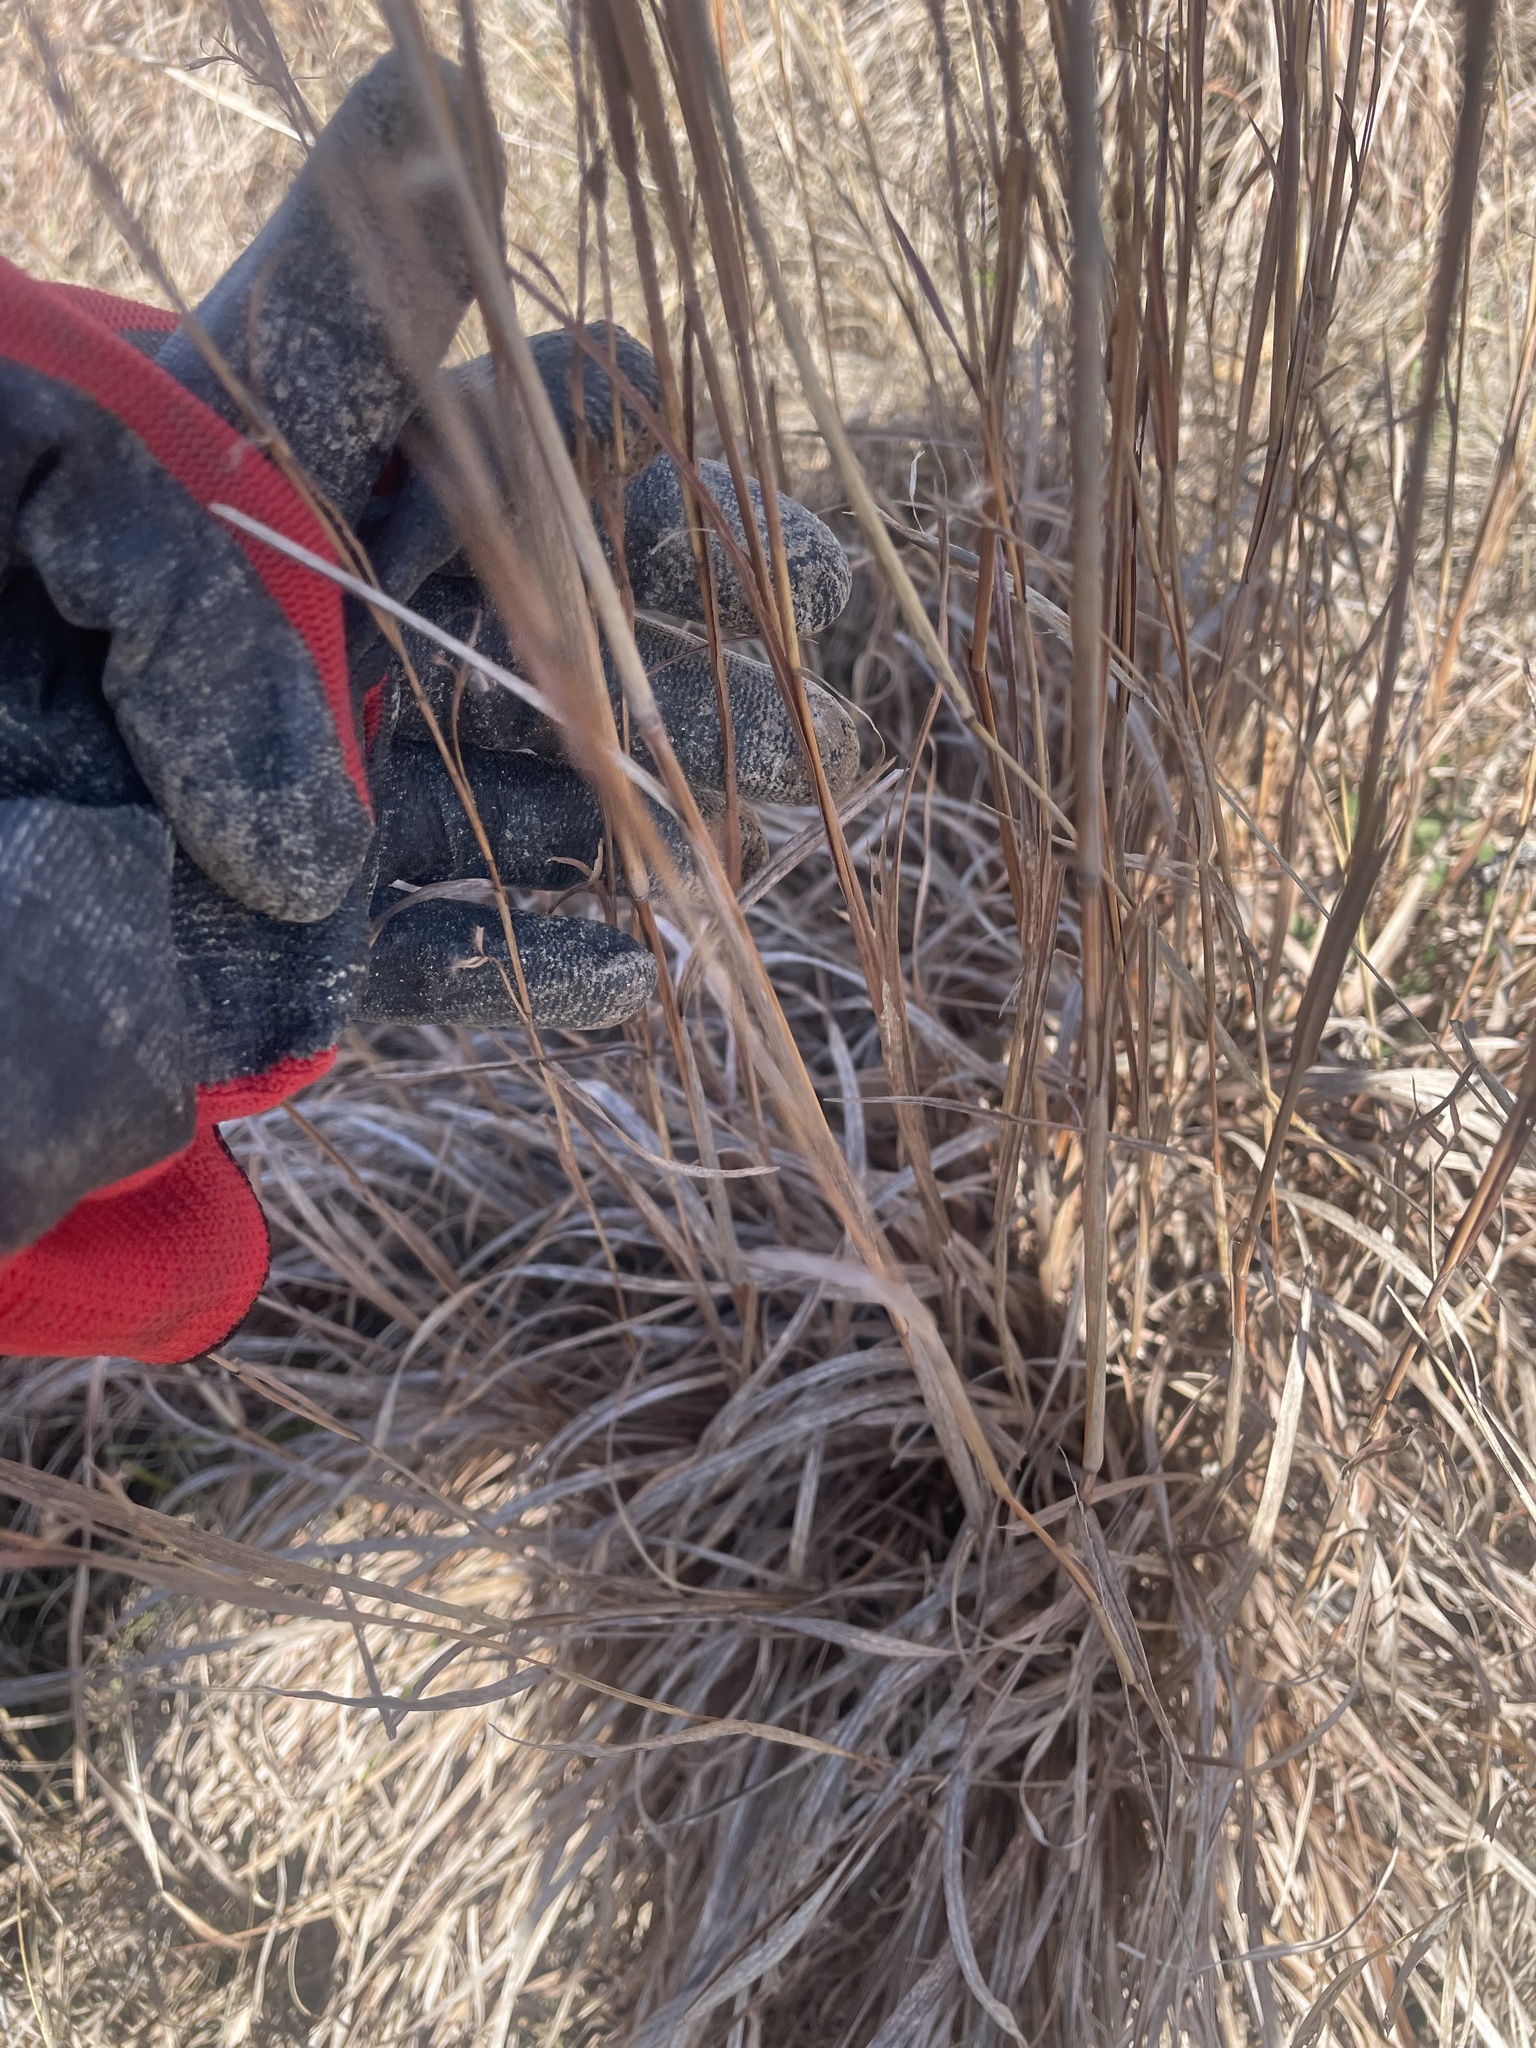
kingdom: Plantae
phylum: Tracheophyta
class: Liliopsida
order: Poales
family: Poaceae
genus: Schizachyrium
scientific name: Schizachyrium scoparium
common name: Little bluestem
